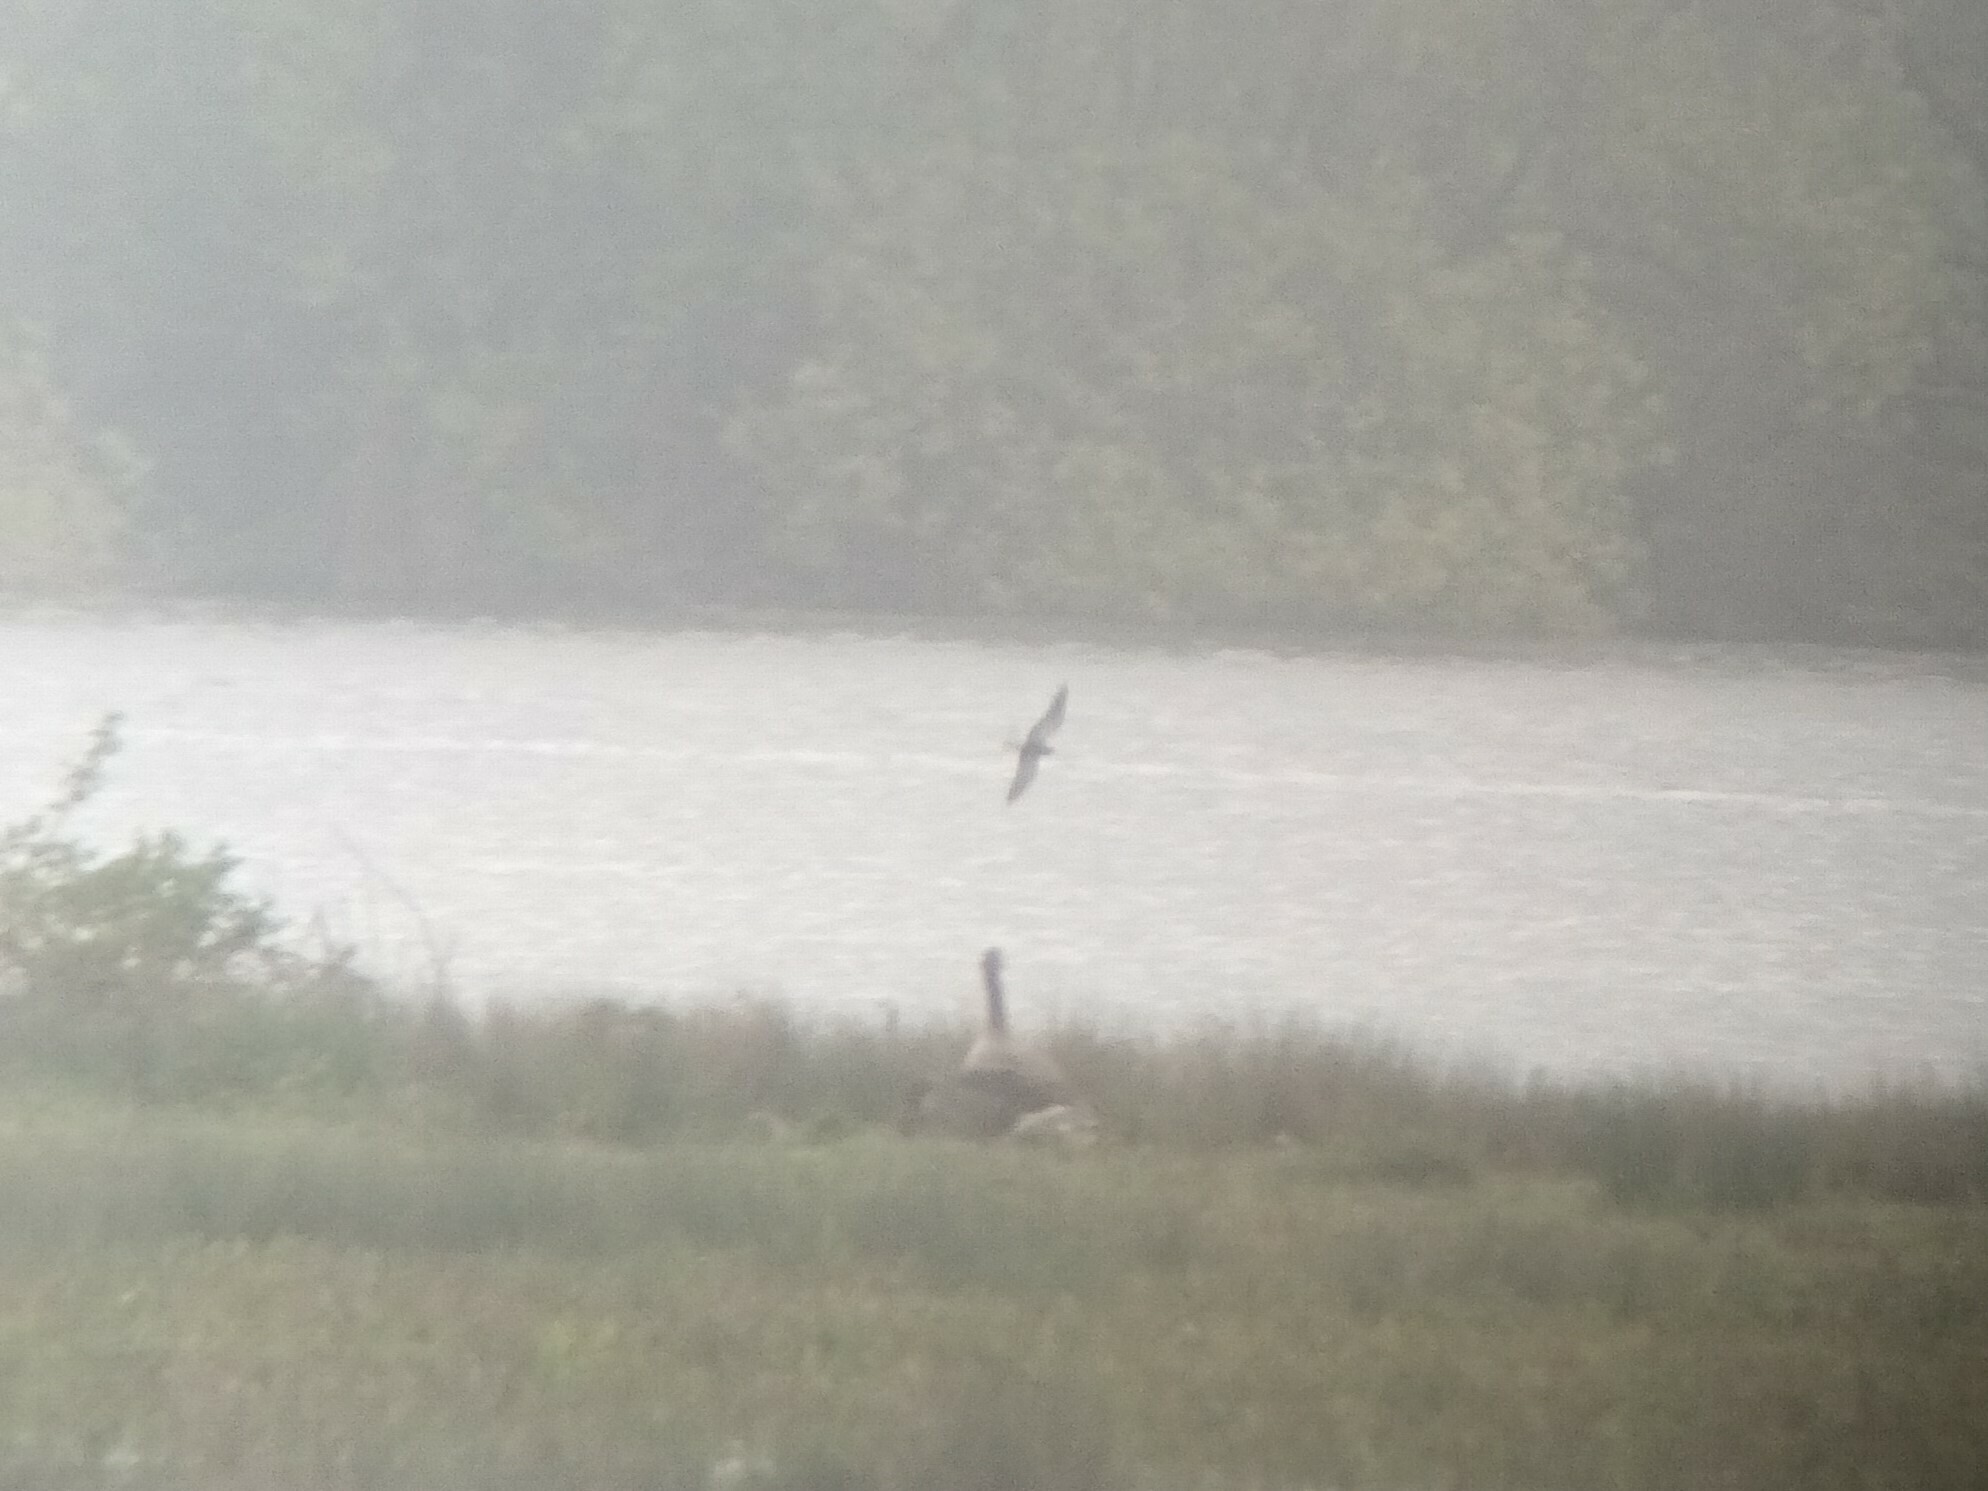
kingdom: Animalia
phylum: Chordata
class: Aves
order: Charadriiformes
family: Laridae
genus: Chlidonias
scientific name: Chlidonias niger
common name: Black tern
